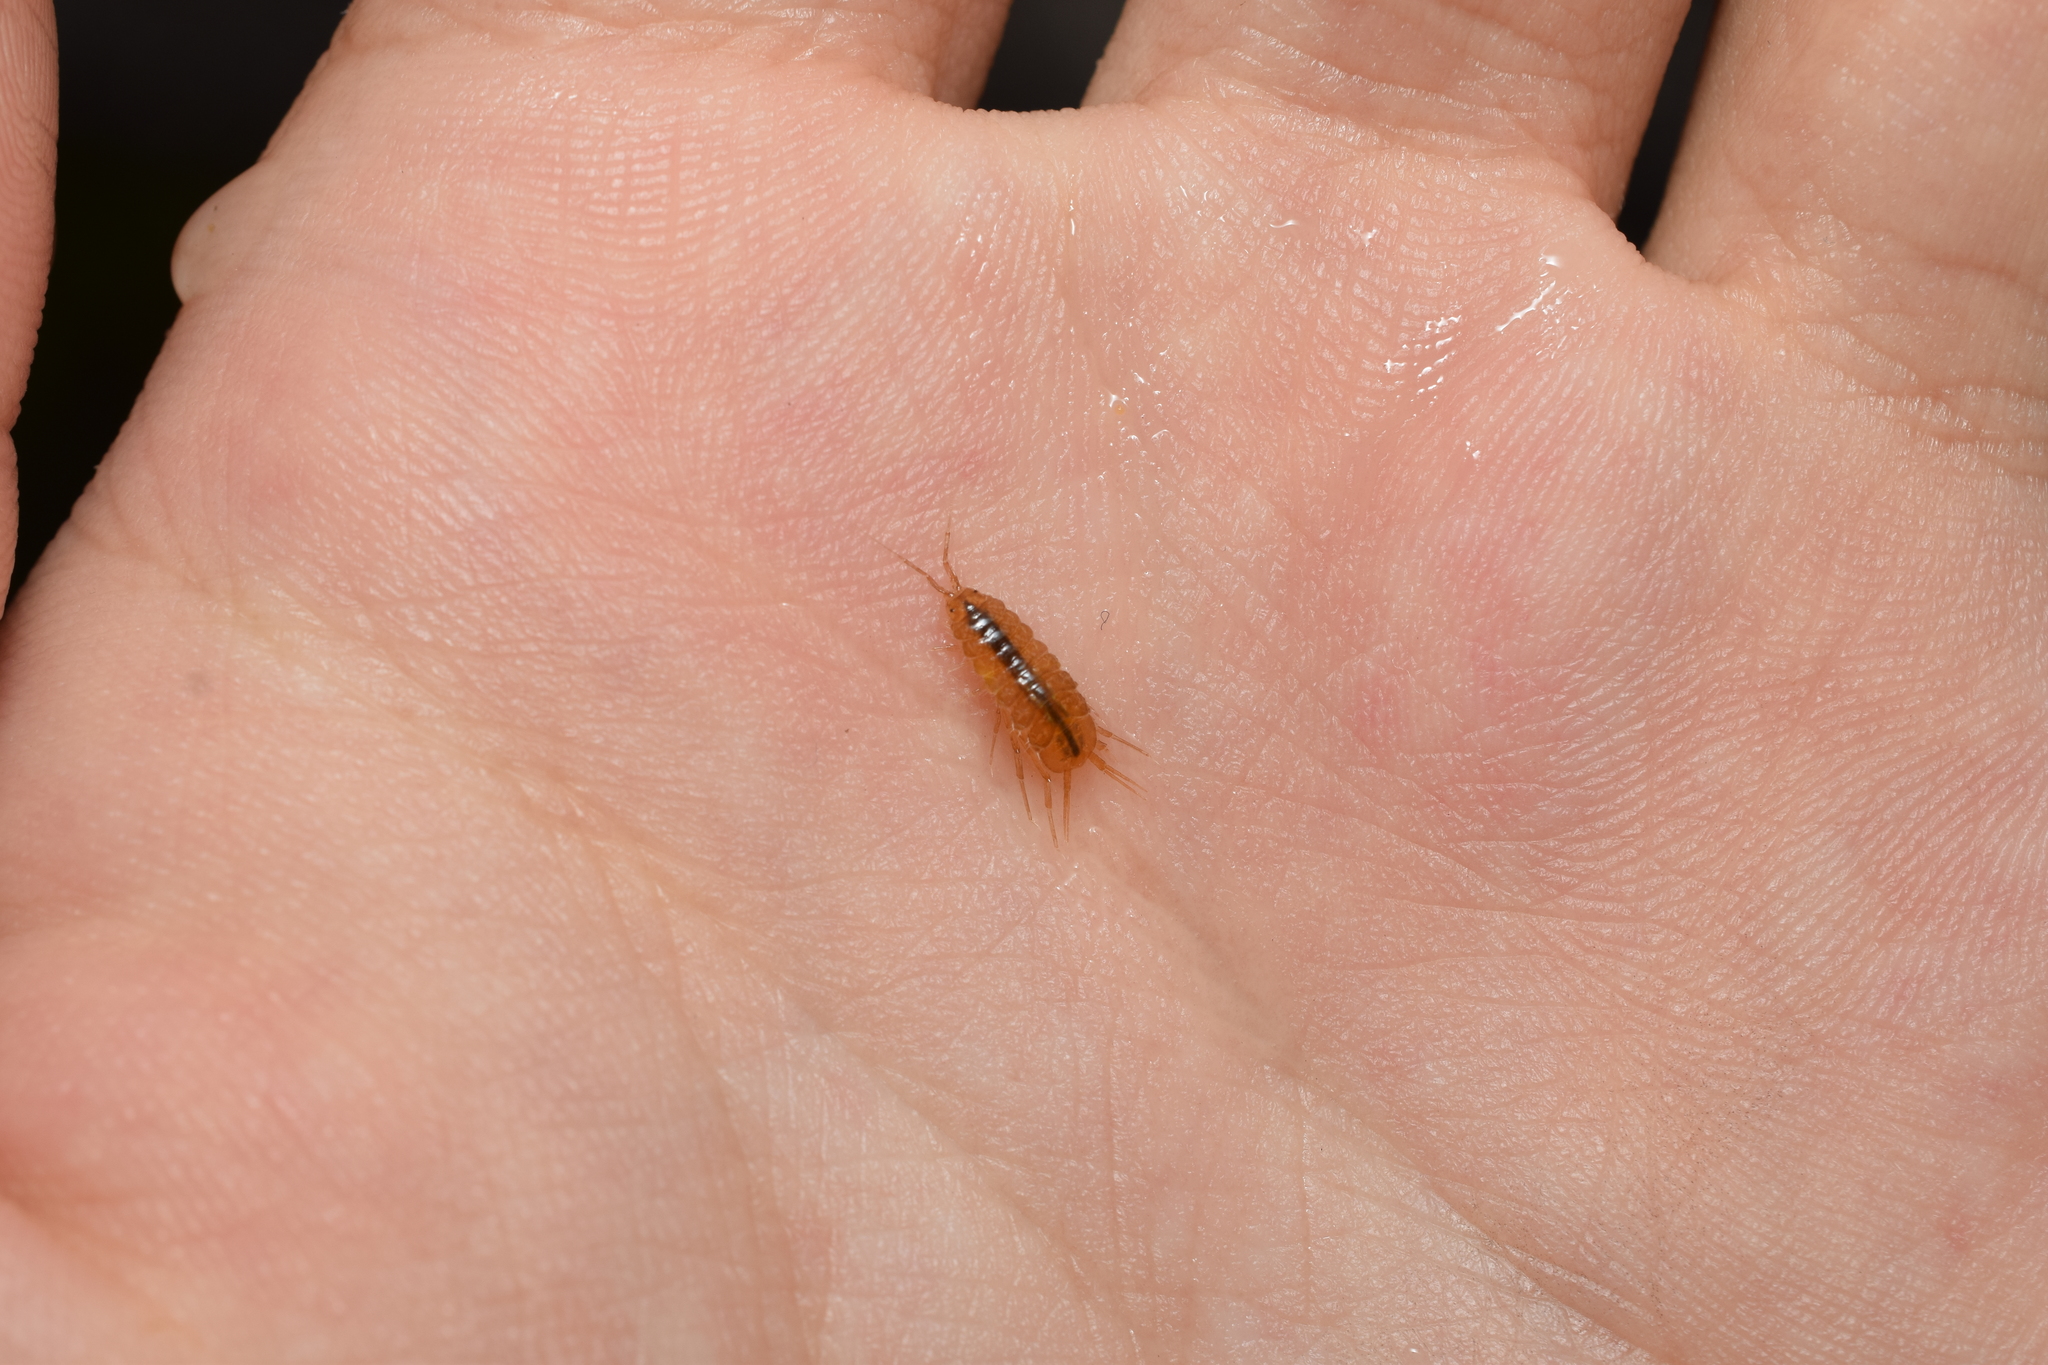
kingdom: Animalia
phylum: Arthropoda
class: Malacostraca
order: Isopoda
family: Asellidae
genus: Asellus
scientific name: Asellus hilgendorfii
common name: Isopod
